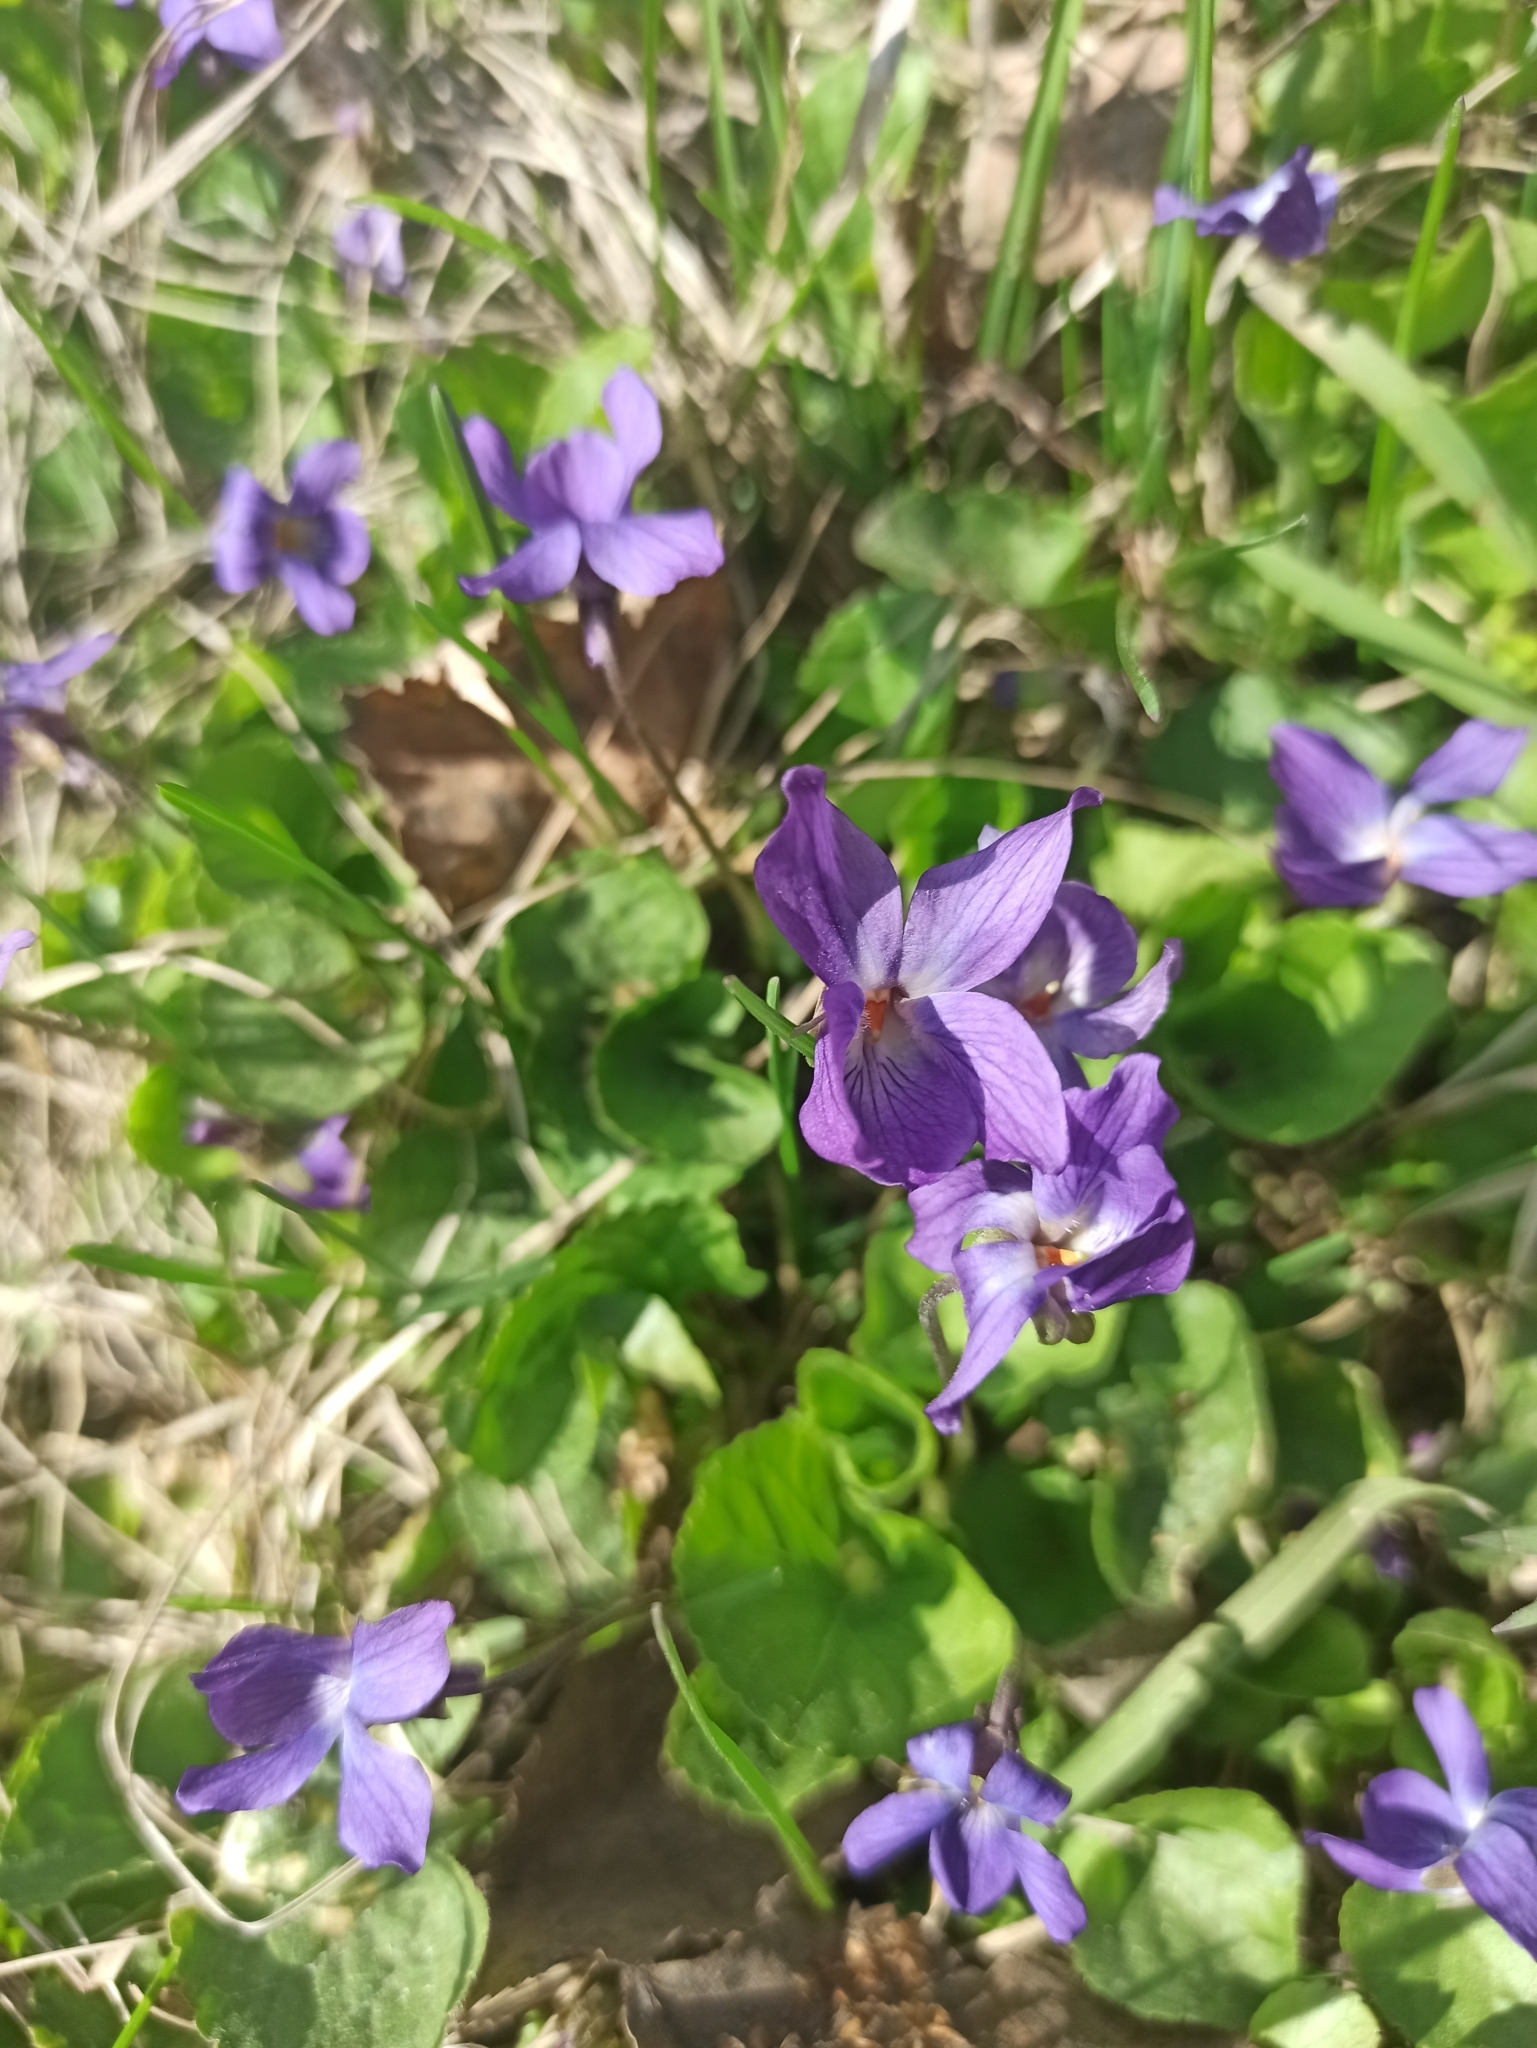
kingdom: Plantae
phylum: Tracheophyta
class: Magnoliopsida
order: Malpighiales
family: Violaceae
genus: Viola
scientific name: Viola odorata
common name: Sweet violet
